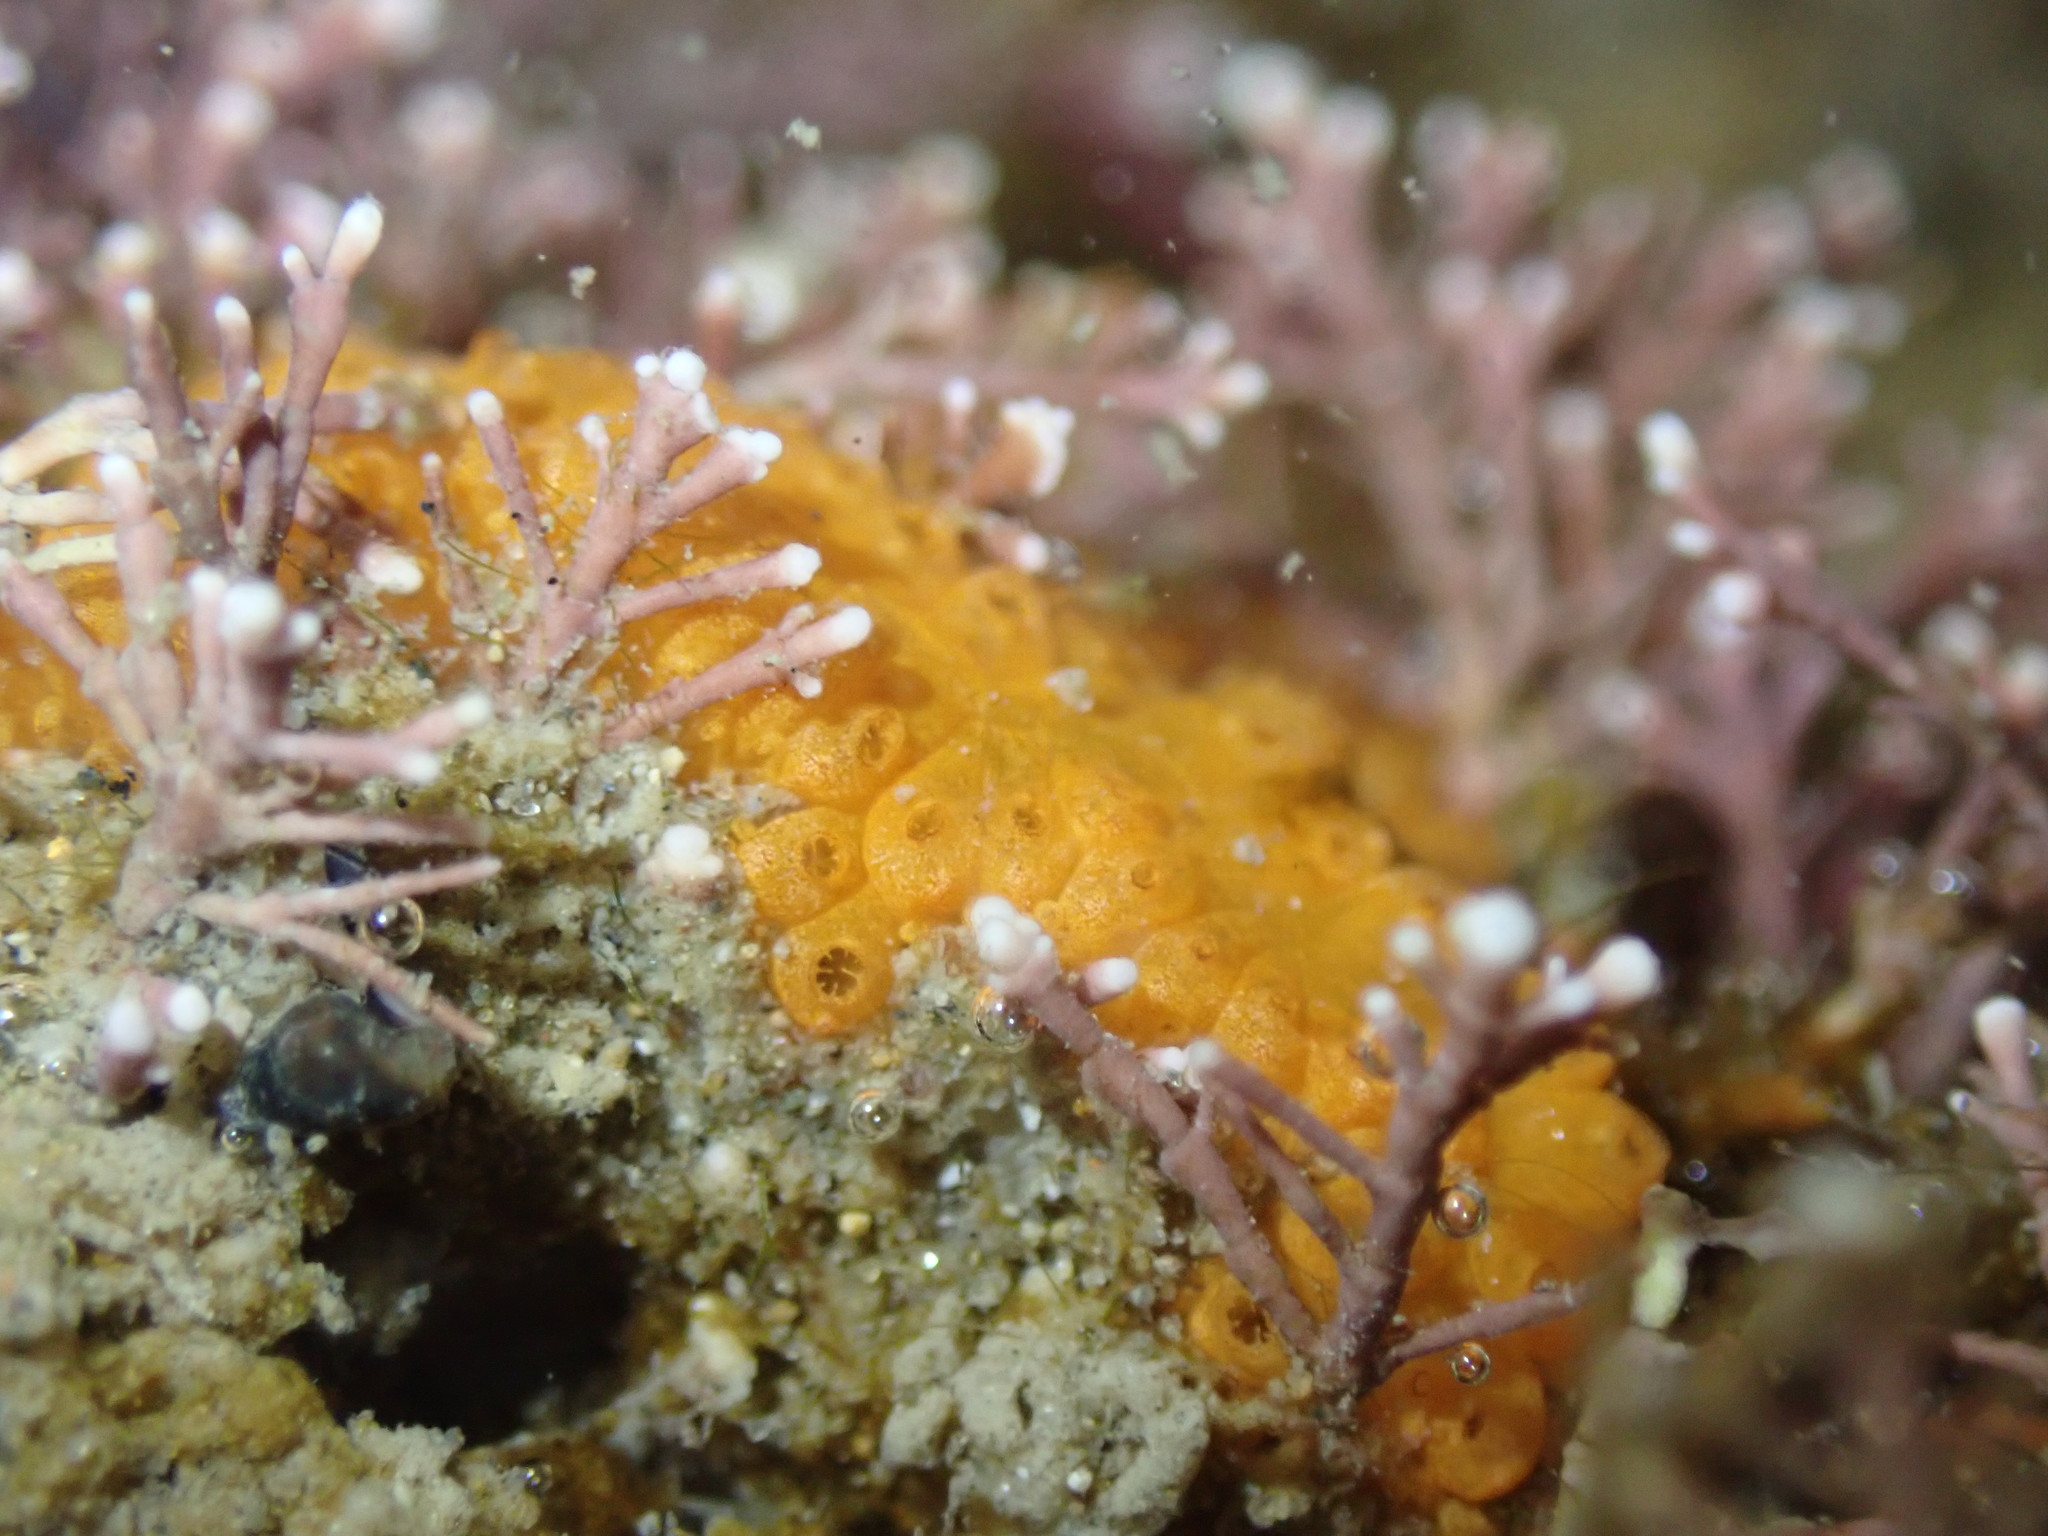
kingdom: Animalia
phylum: Chordata
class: Ascidiacea
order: Stolidobranchia
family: Styelidae
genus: Botrylloides
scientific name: Botrylloides violaceus
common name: Colonial sea squirt
